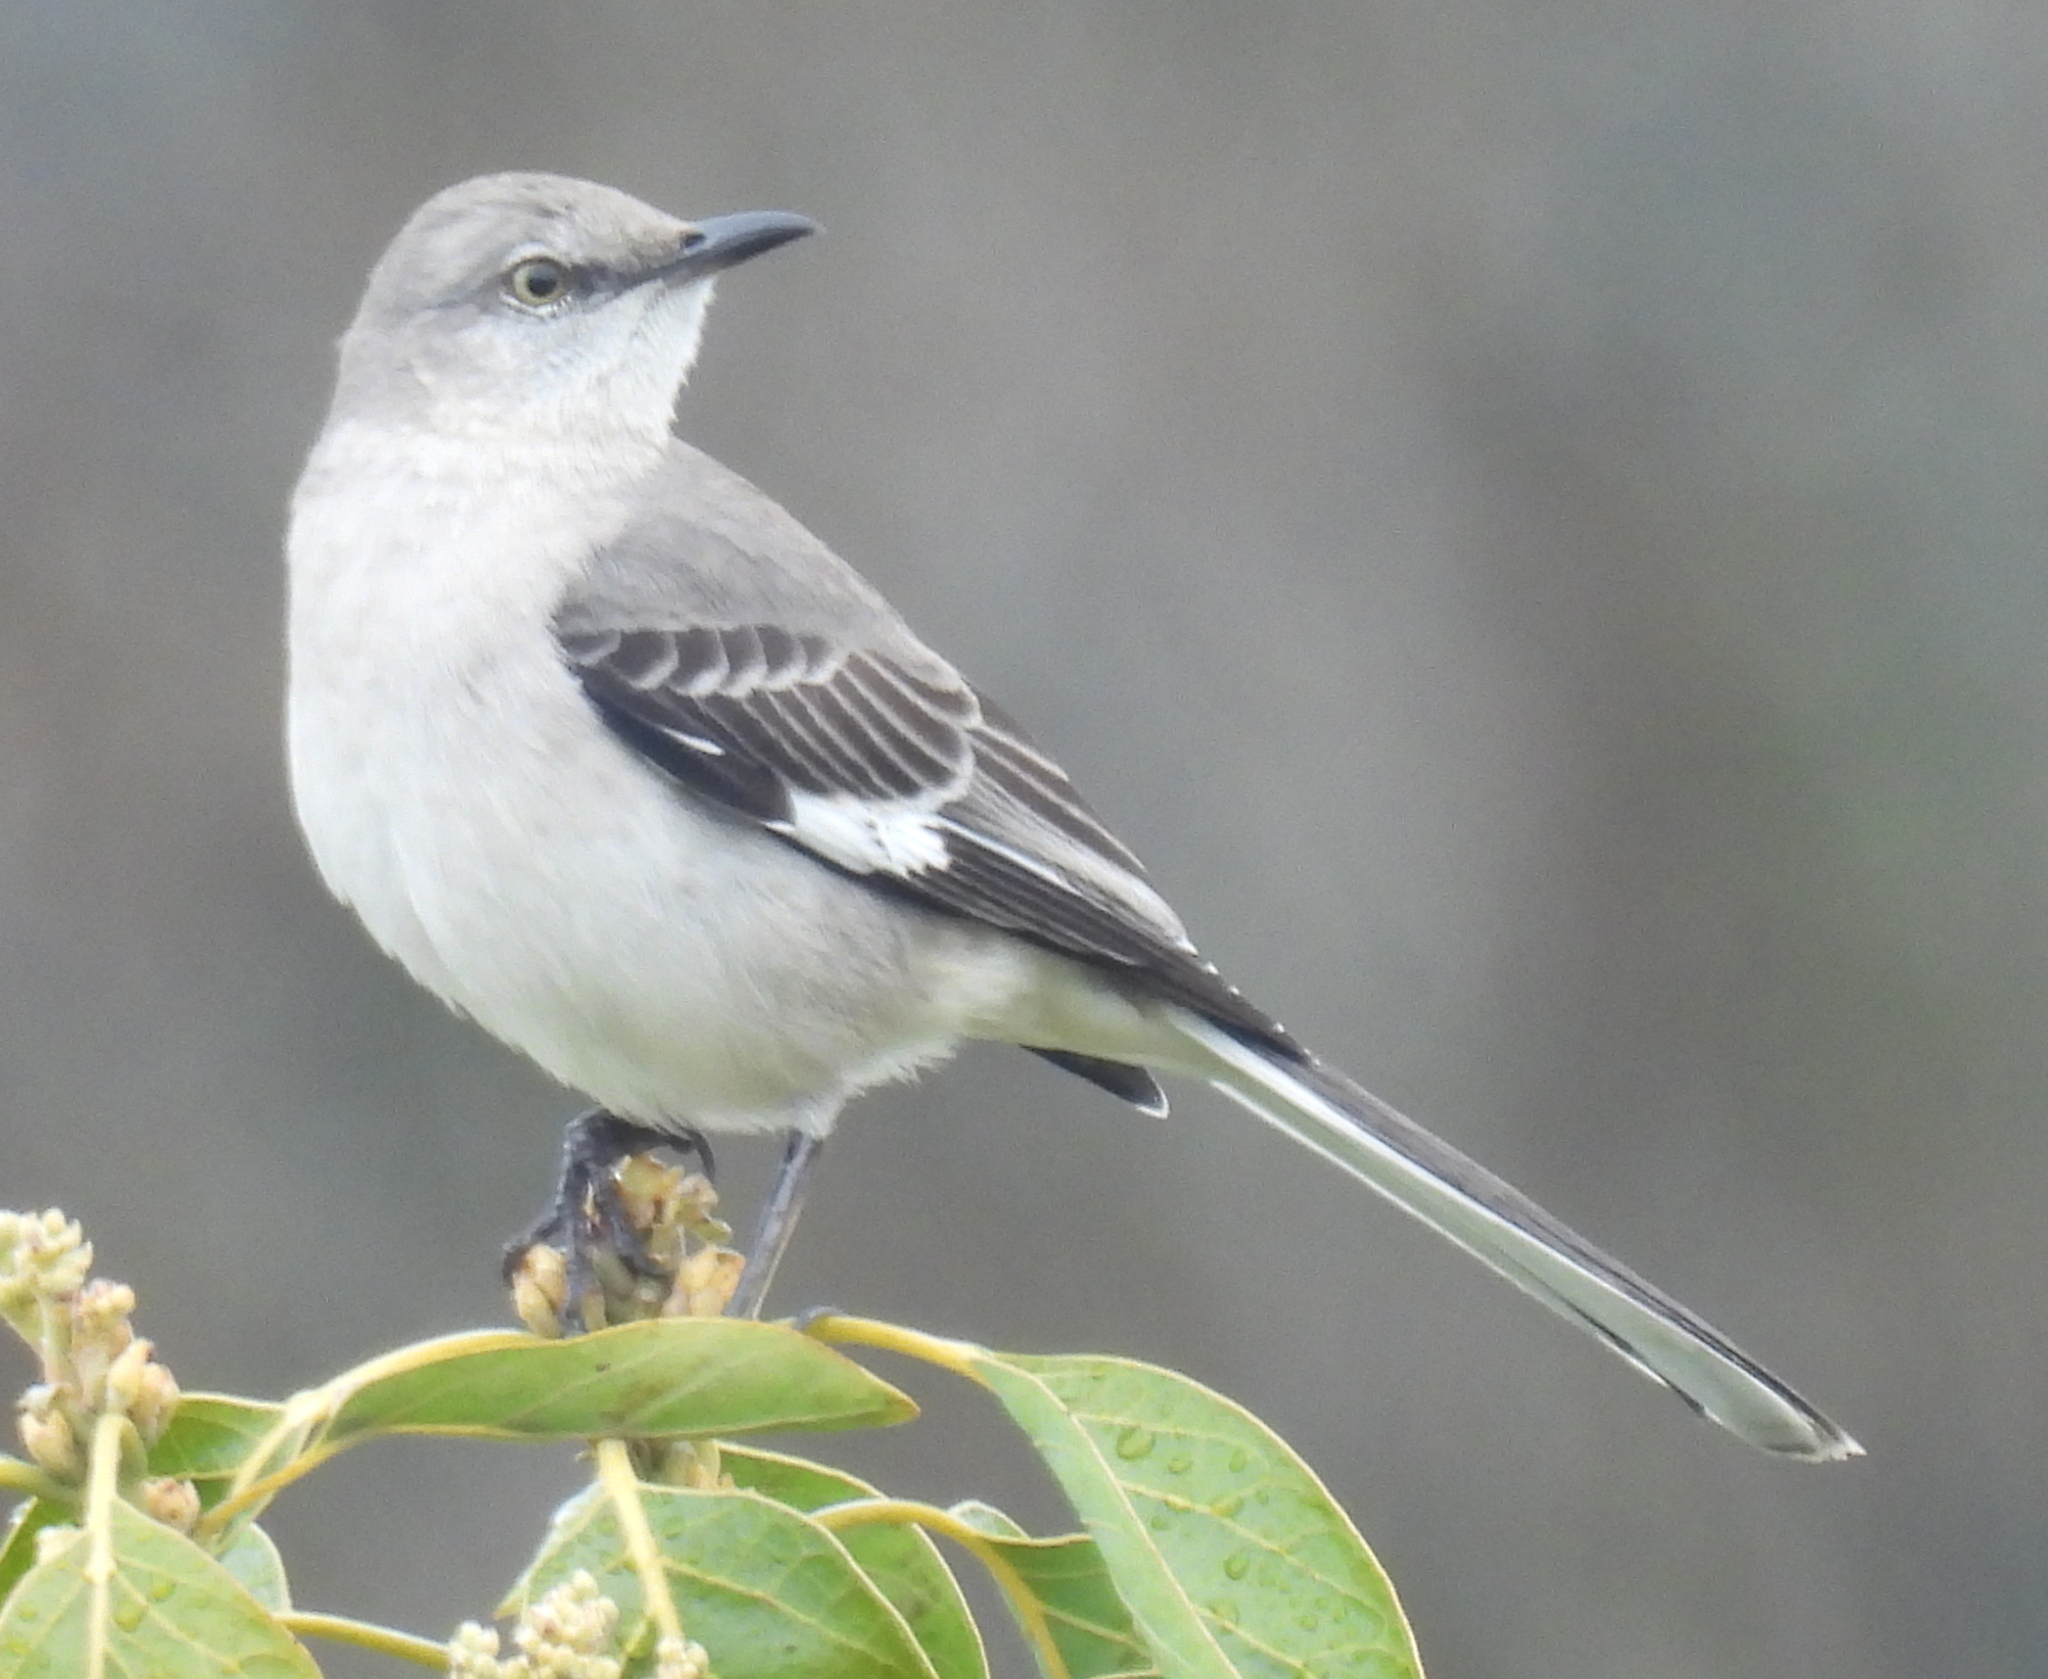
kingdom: Animalia
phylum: Chordata
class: Aves
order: Passeriformes
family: Mimidae
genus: Mimus
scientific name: Mimus polyglottos
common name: Northern mockingbird
